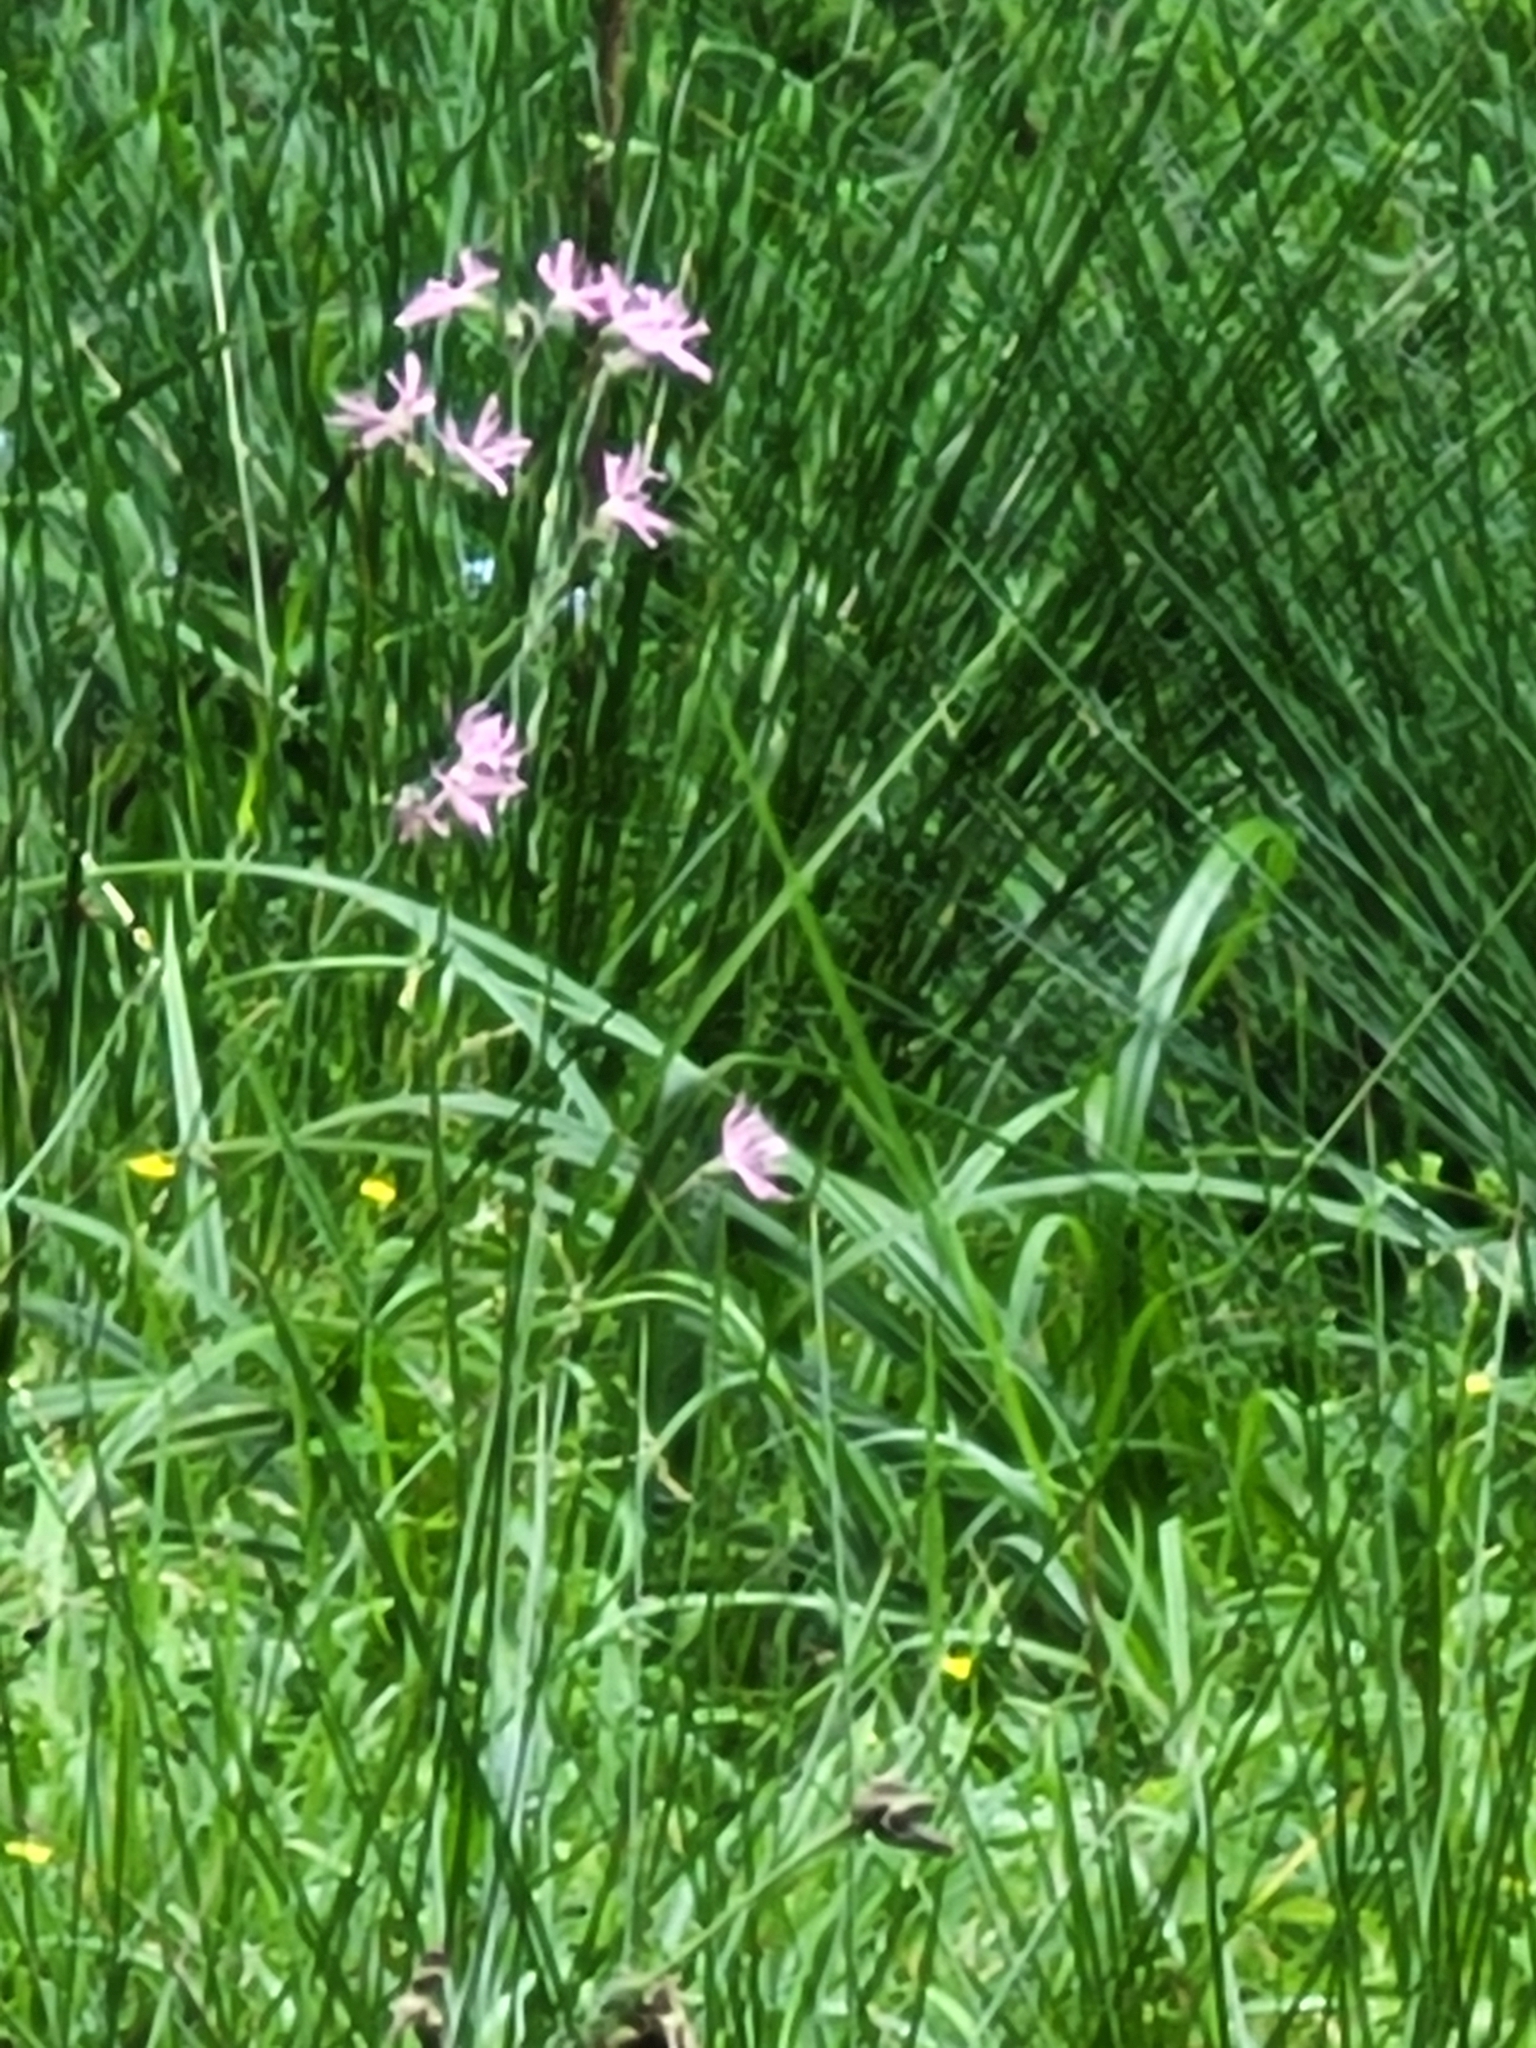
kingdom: Plantae
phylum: Tracheophyta
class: Magnoliopsida
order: Caryophyllales
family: Caryophyllaceae
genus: Silene
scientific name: Silene flos-cuculi
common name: Ragged-robin
